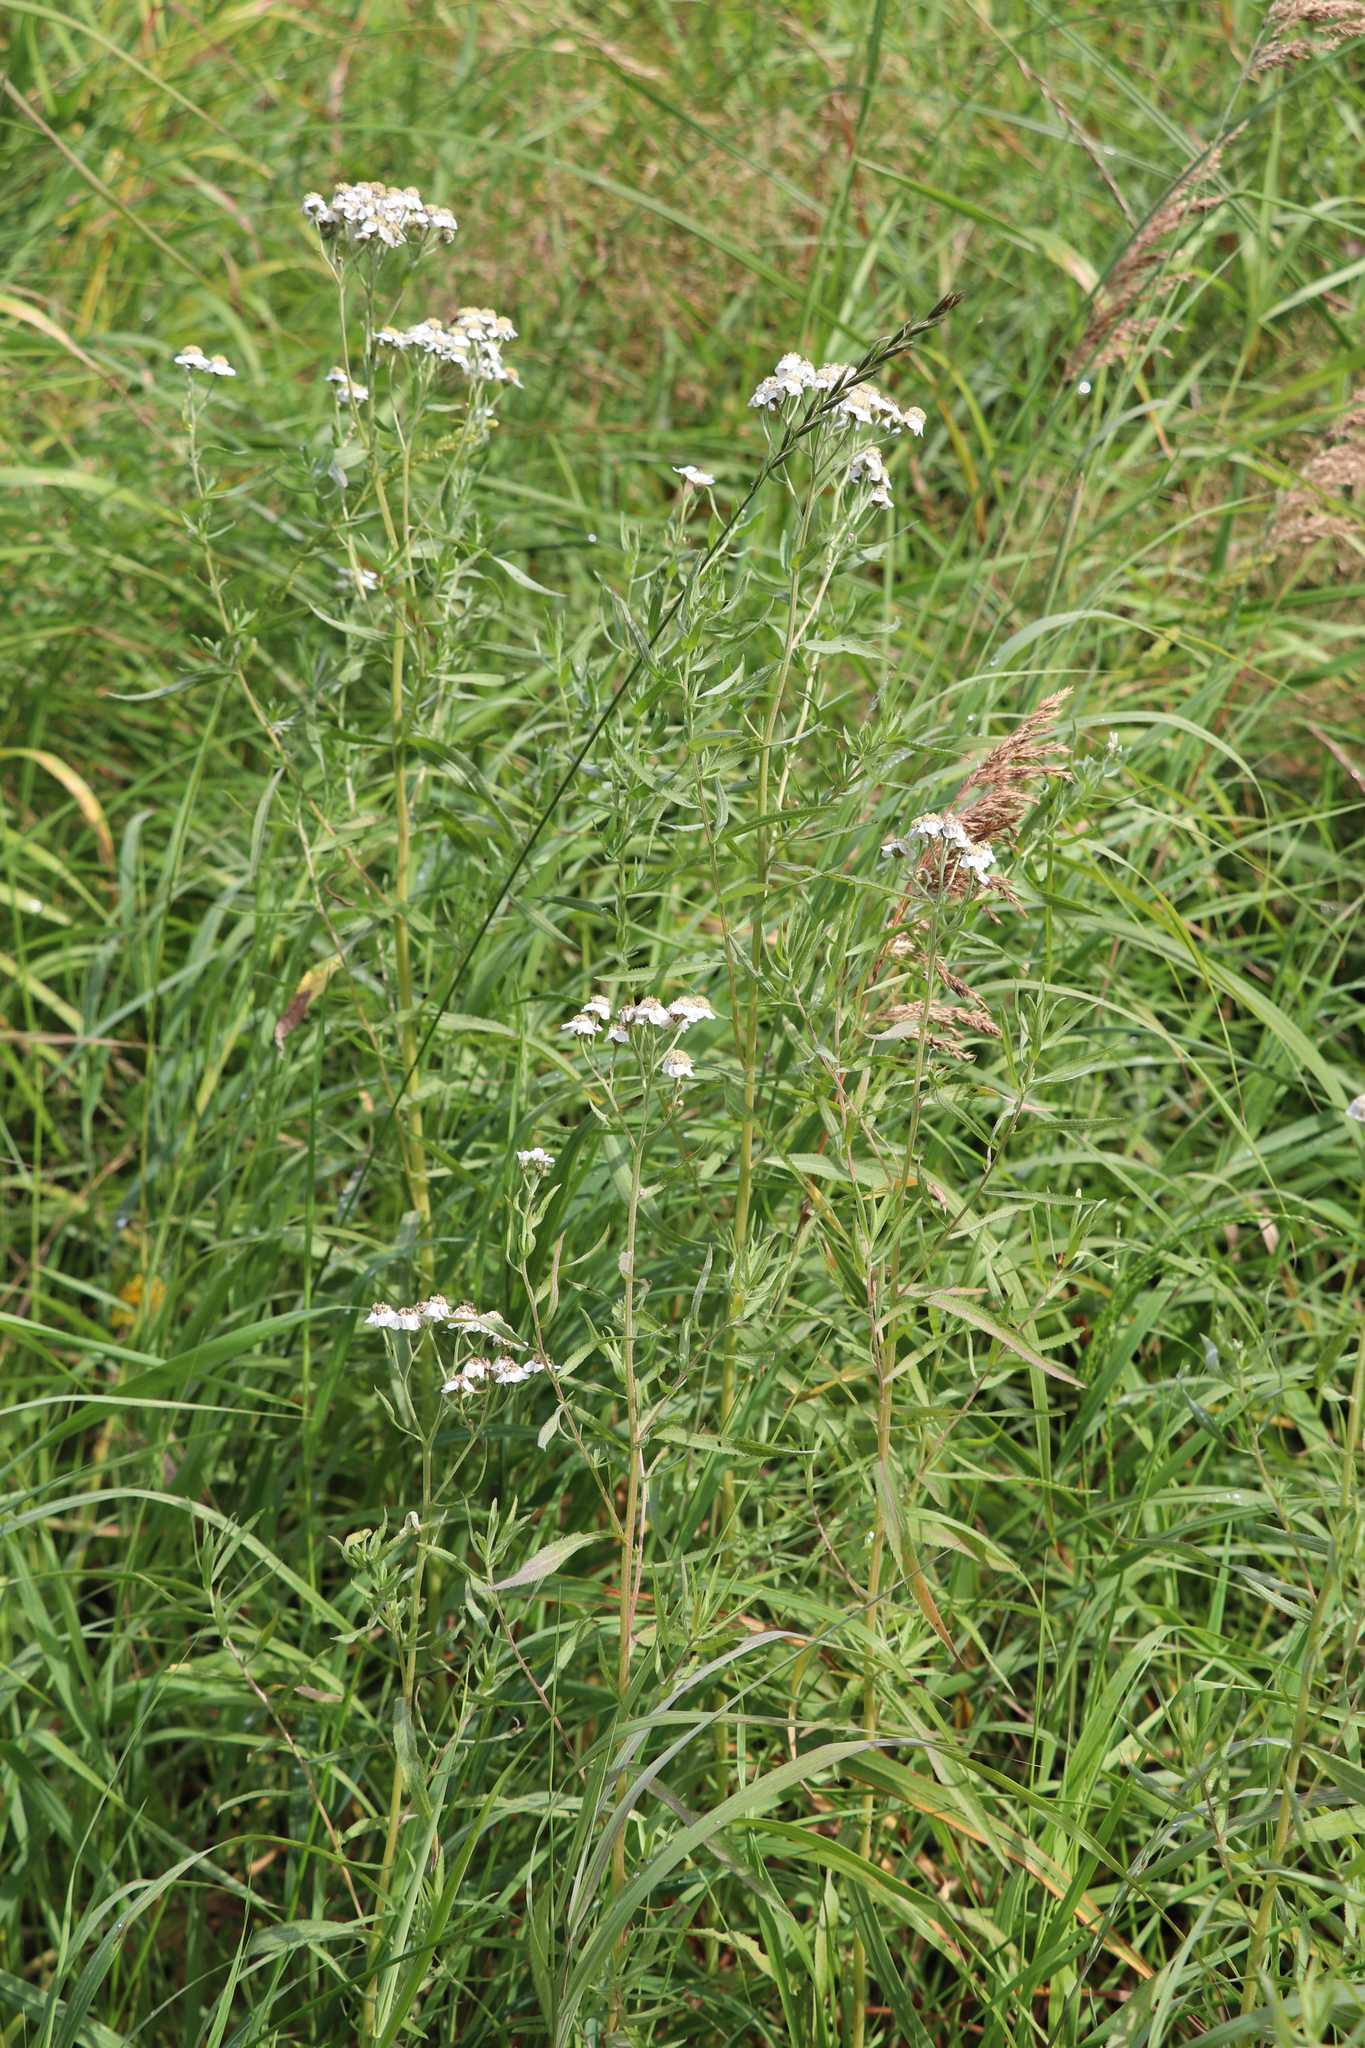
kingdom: Plantae
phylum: Tracheophyta
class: Magnoliopsida
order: Asterales
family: Asteraceae
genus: Achillea
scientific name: Achillea salicifolia
